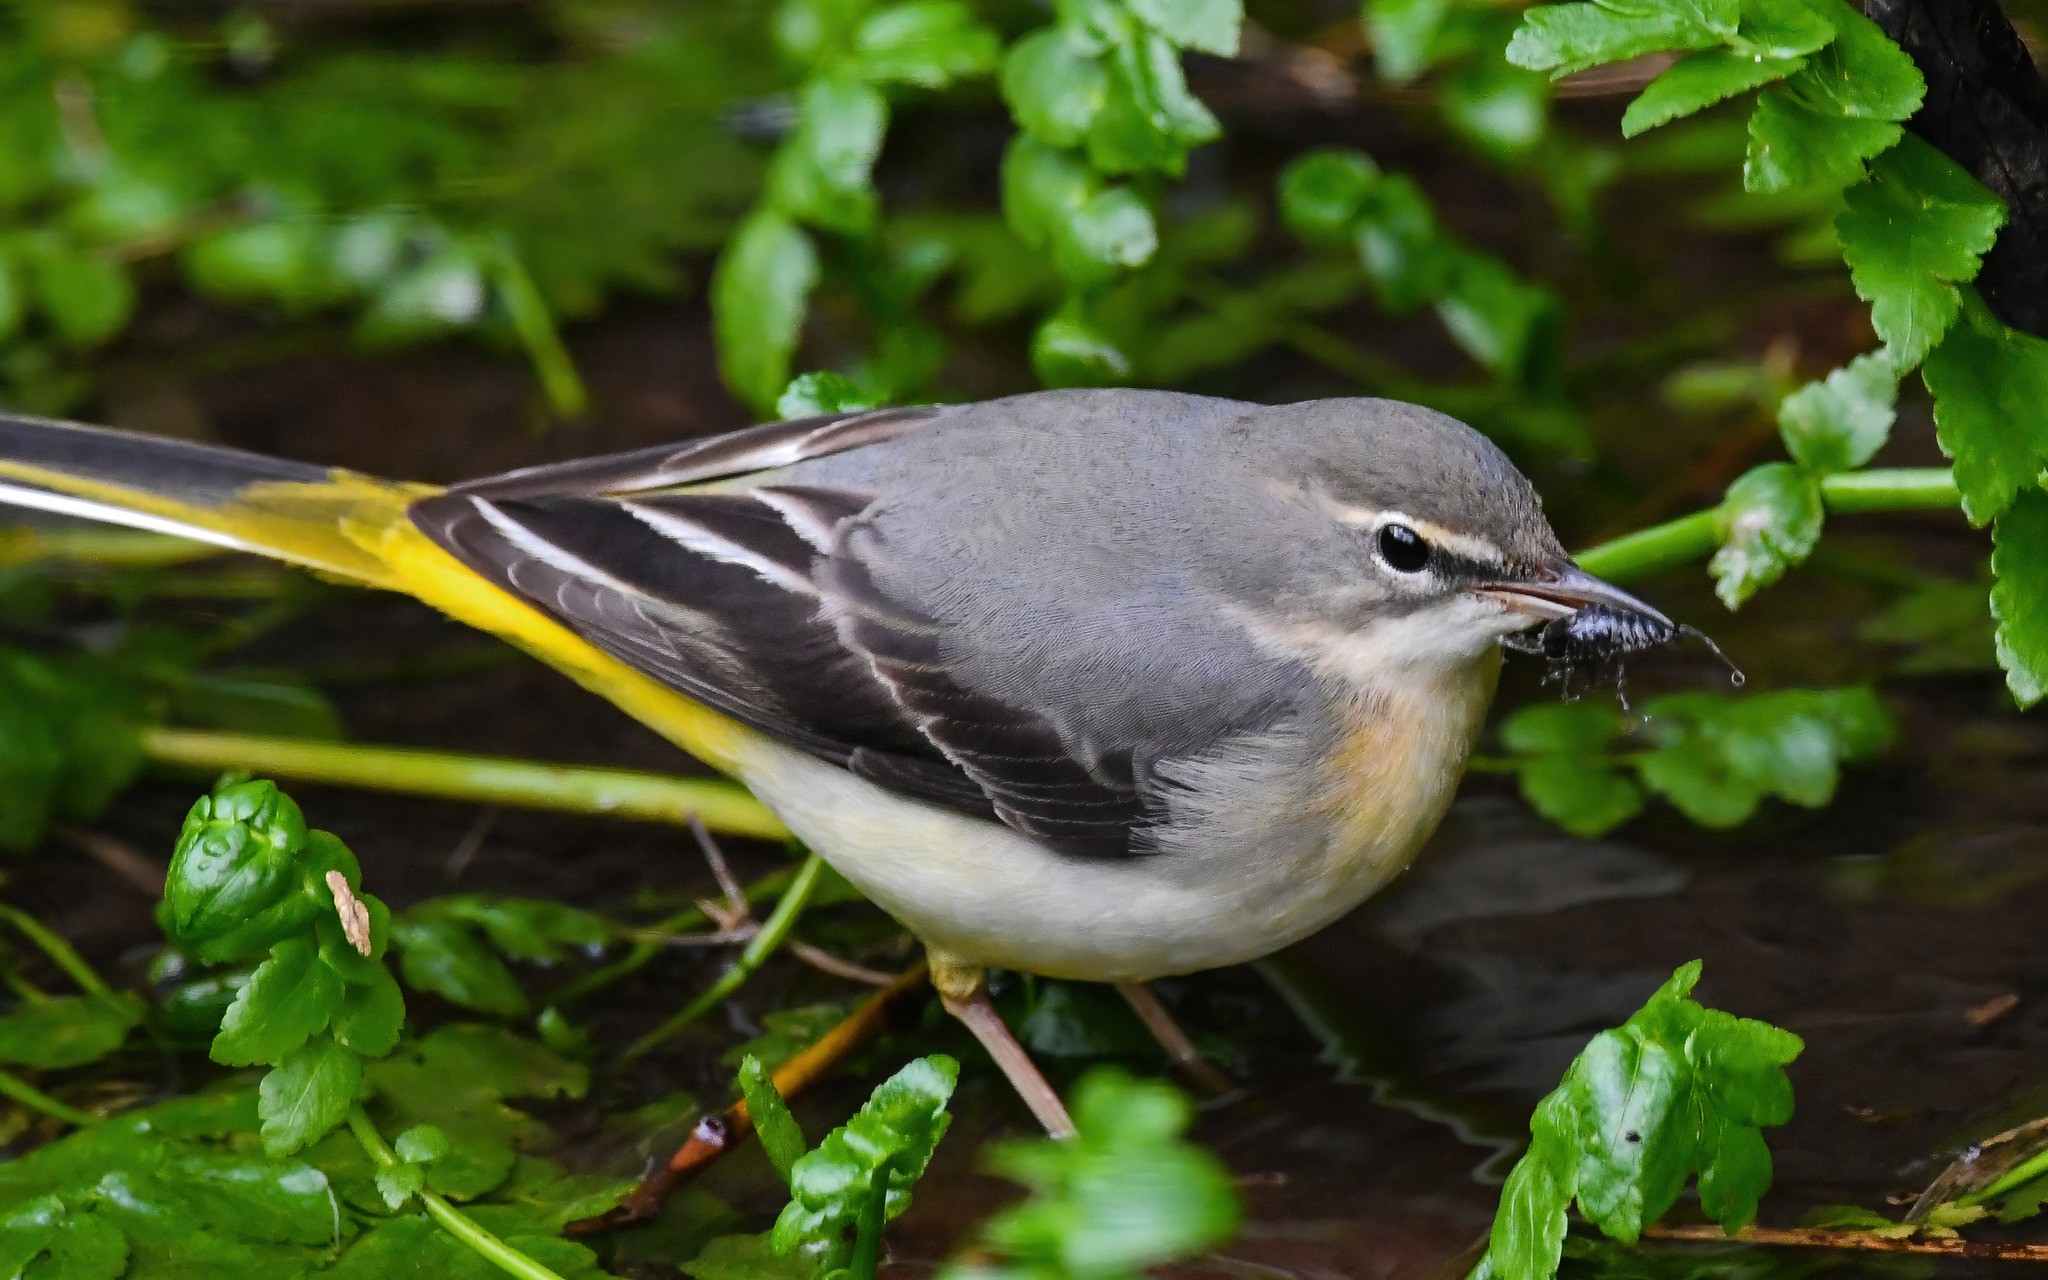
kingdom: Animalia
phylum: Chordata
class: Aves
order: Passeriformes
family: Motacillidae
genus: Motacilla
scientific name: Motacilla cinerea
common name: Grey wagtail
